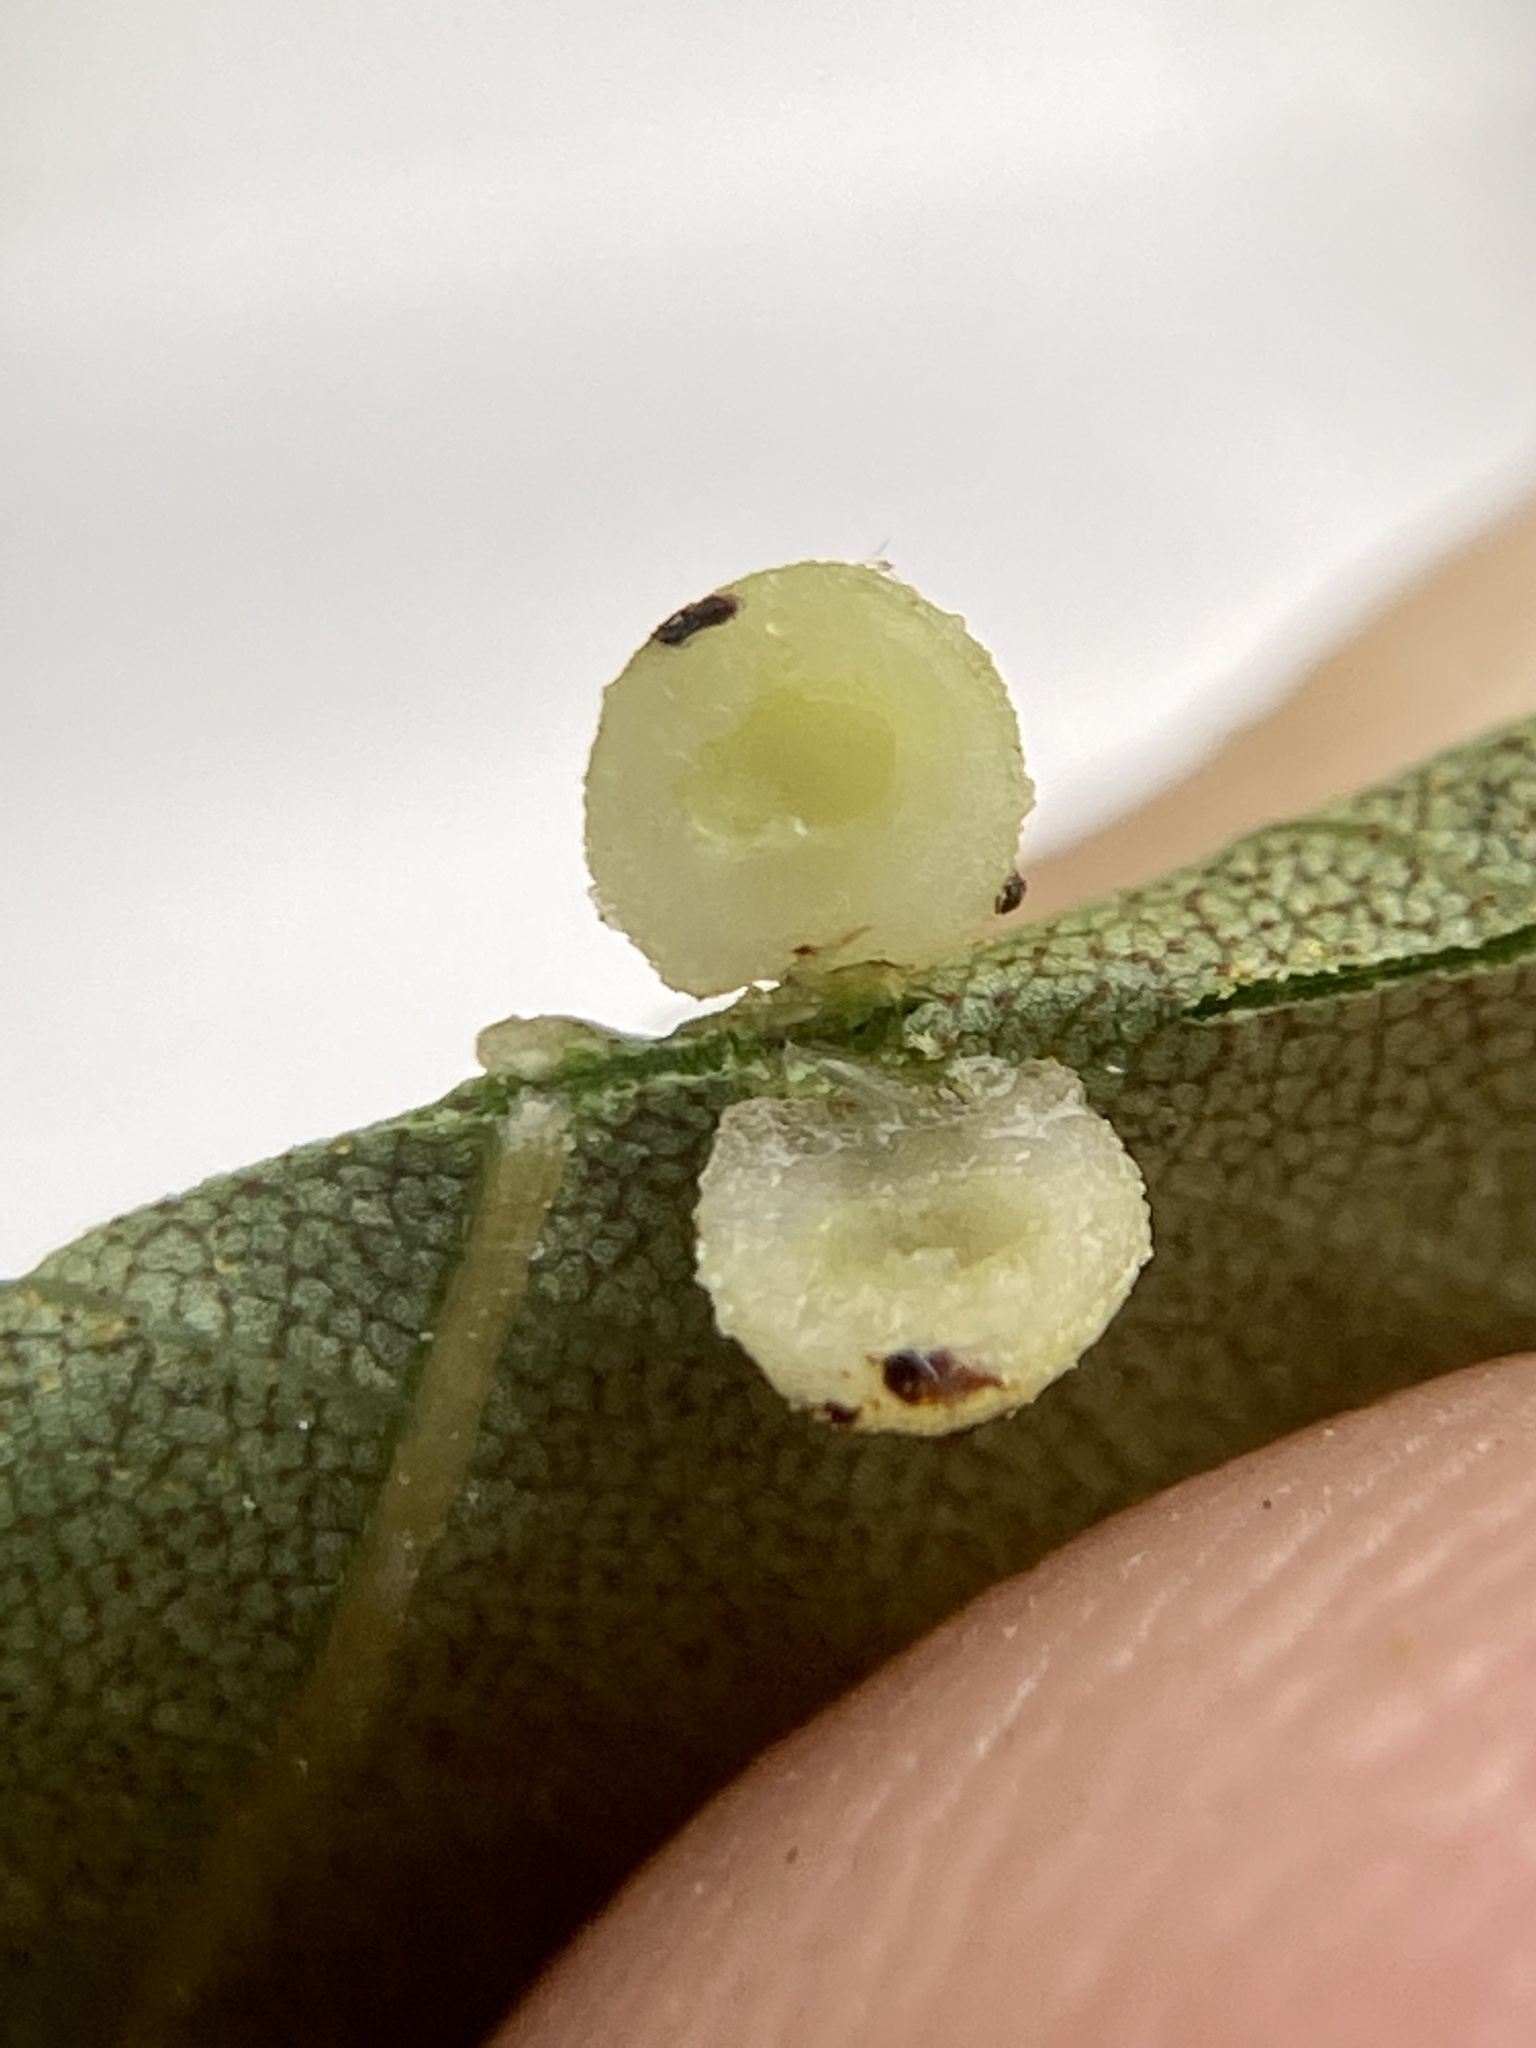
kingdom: Animalia
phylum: Arthropoda
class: Insecta
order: Diptera
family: Cecidomyiidae
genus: Caryomyia
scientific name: Caryomyia tuberculata
